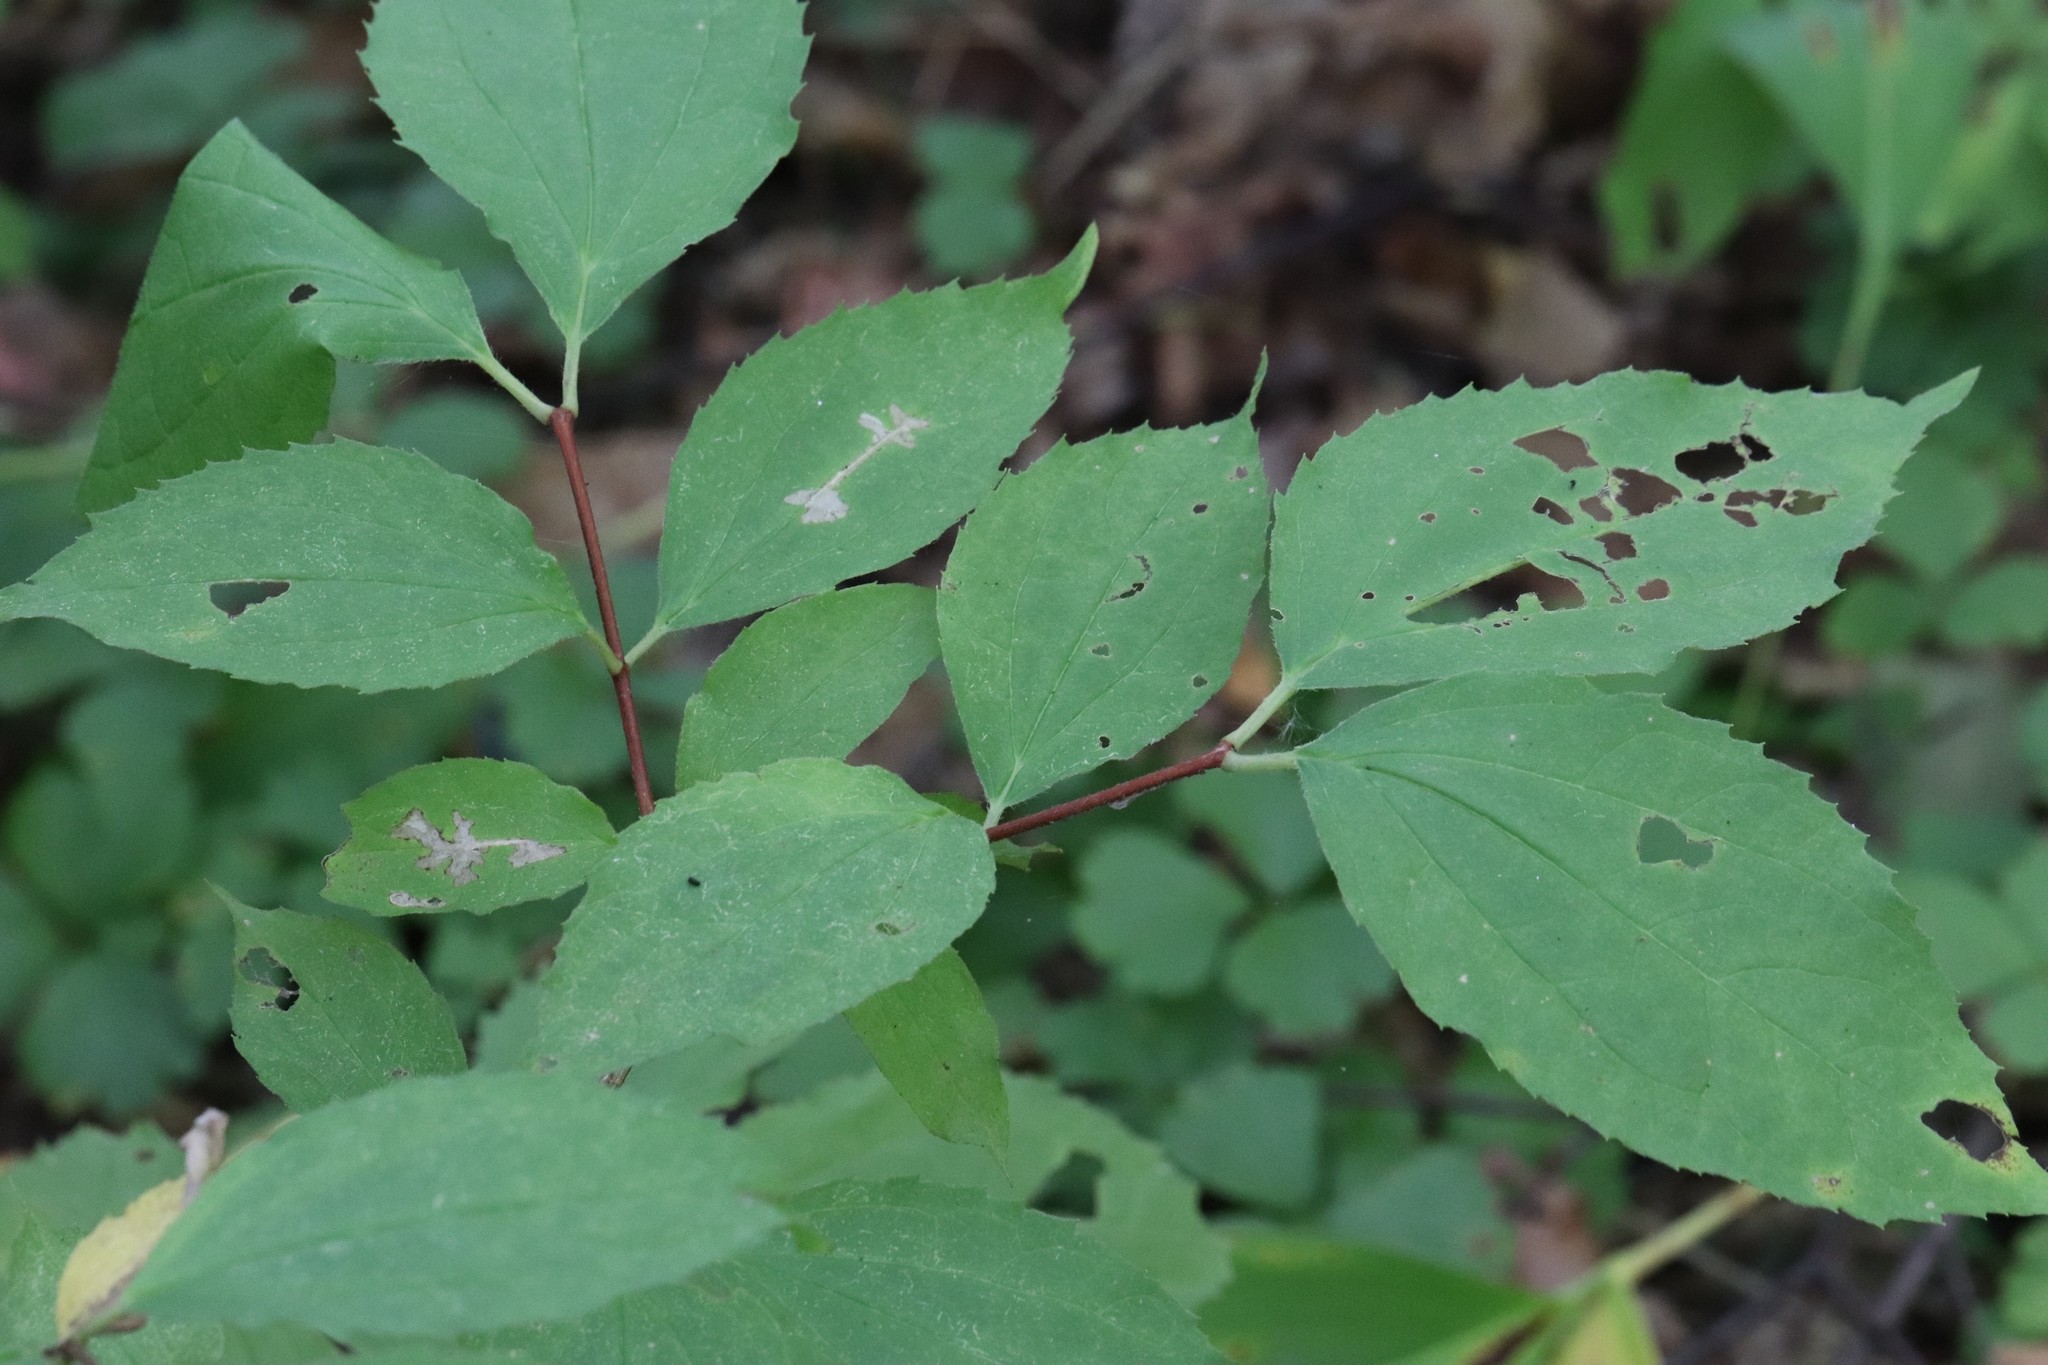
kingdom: Plantae
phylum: Tracheophyta
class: Magnoliopsida
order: Cornales
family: Hydrangeaceae
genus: Philadelphus
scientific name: Philadelphus tenuifolius
